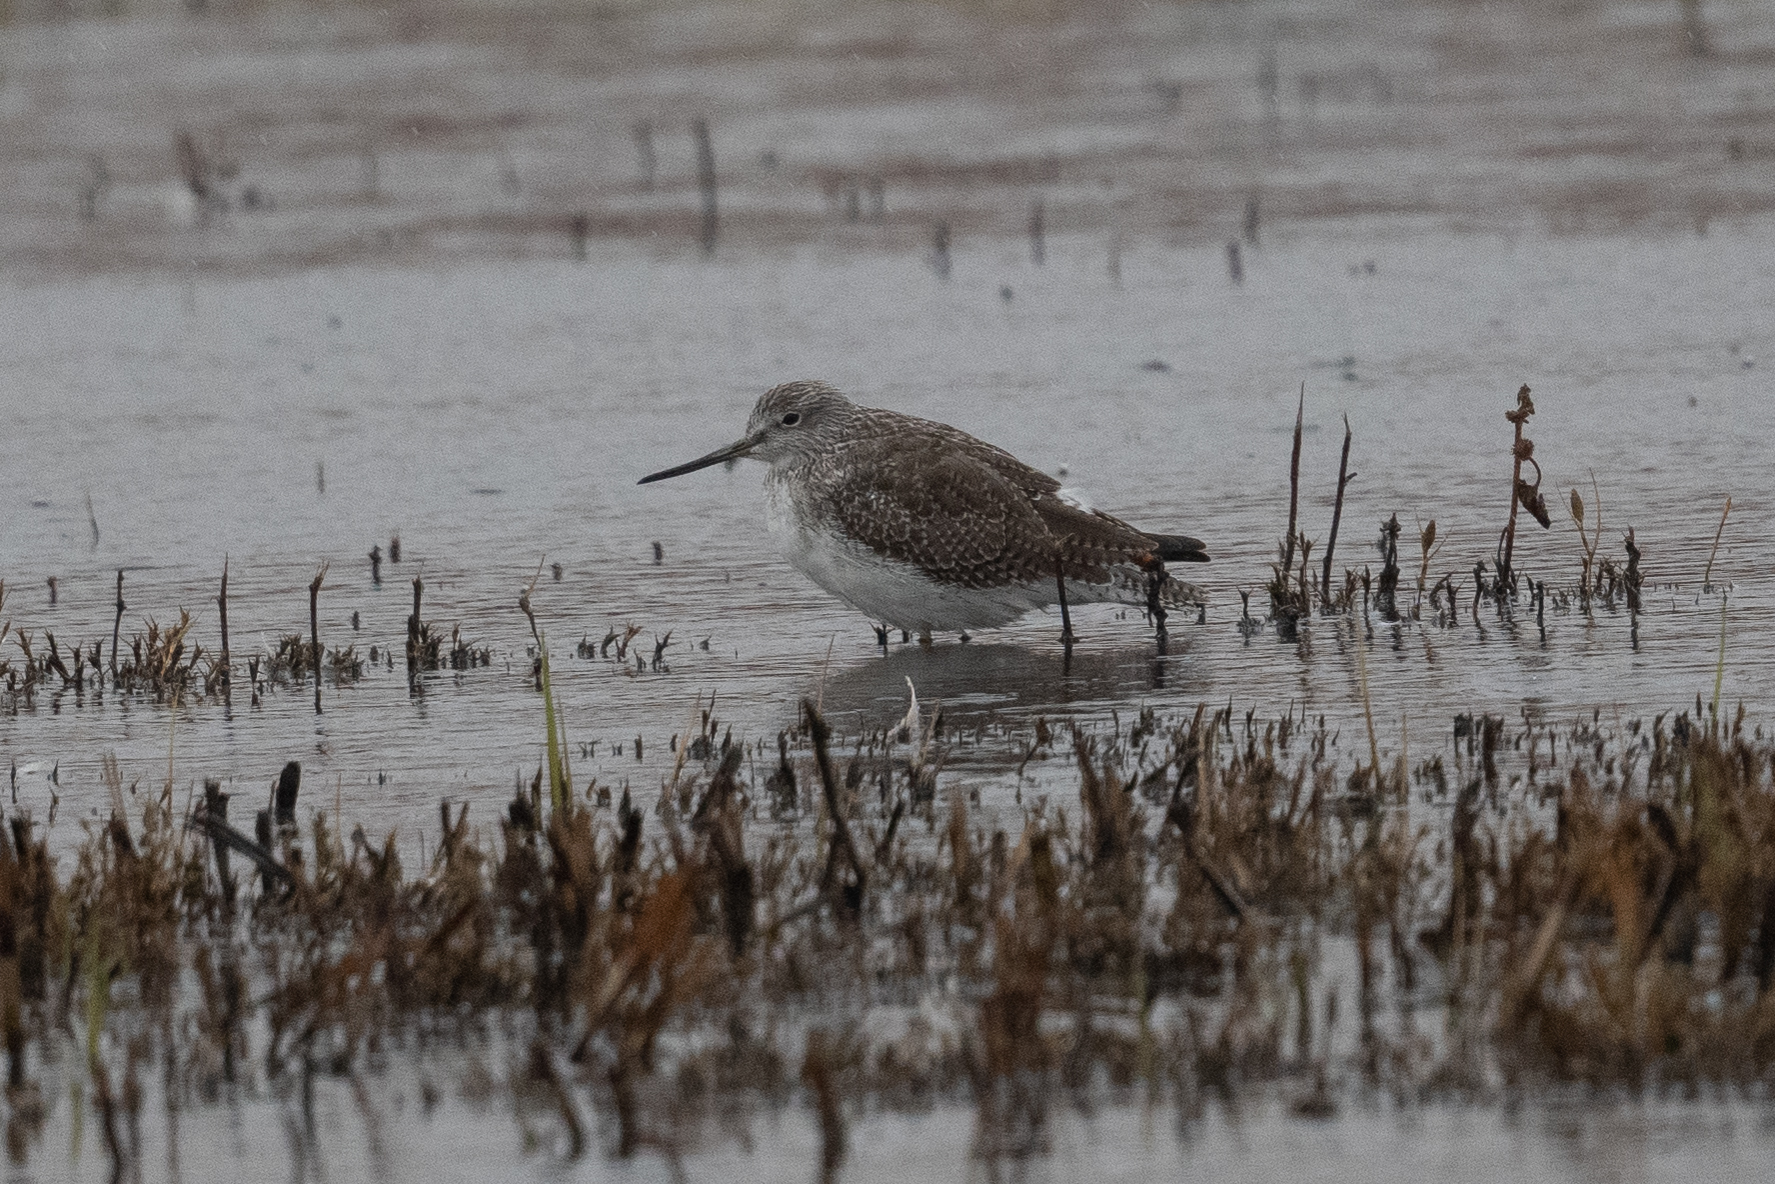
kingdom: Animalia
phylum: Chordata
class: Aves
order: Charadriiformes
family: Scolopacidae
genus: Tringa
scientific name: Tringa melanoleuca
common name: Greater yellowlegs
